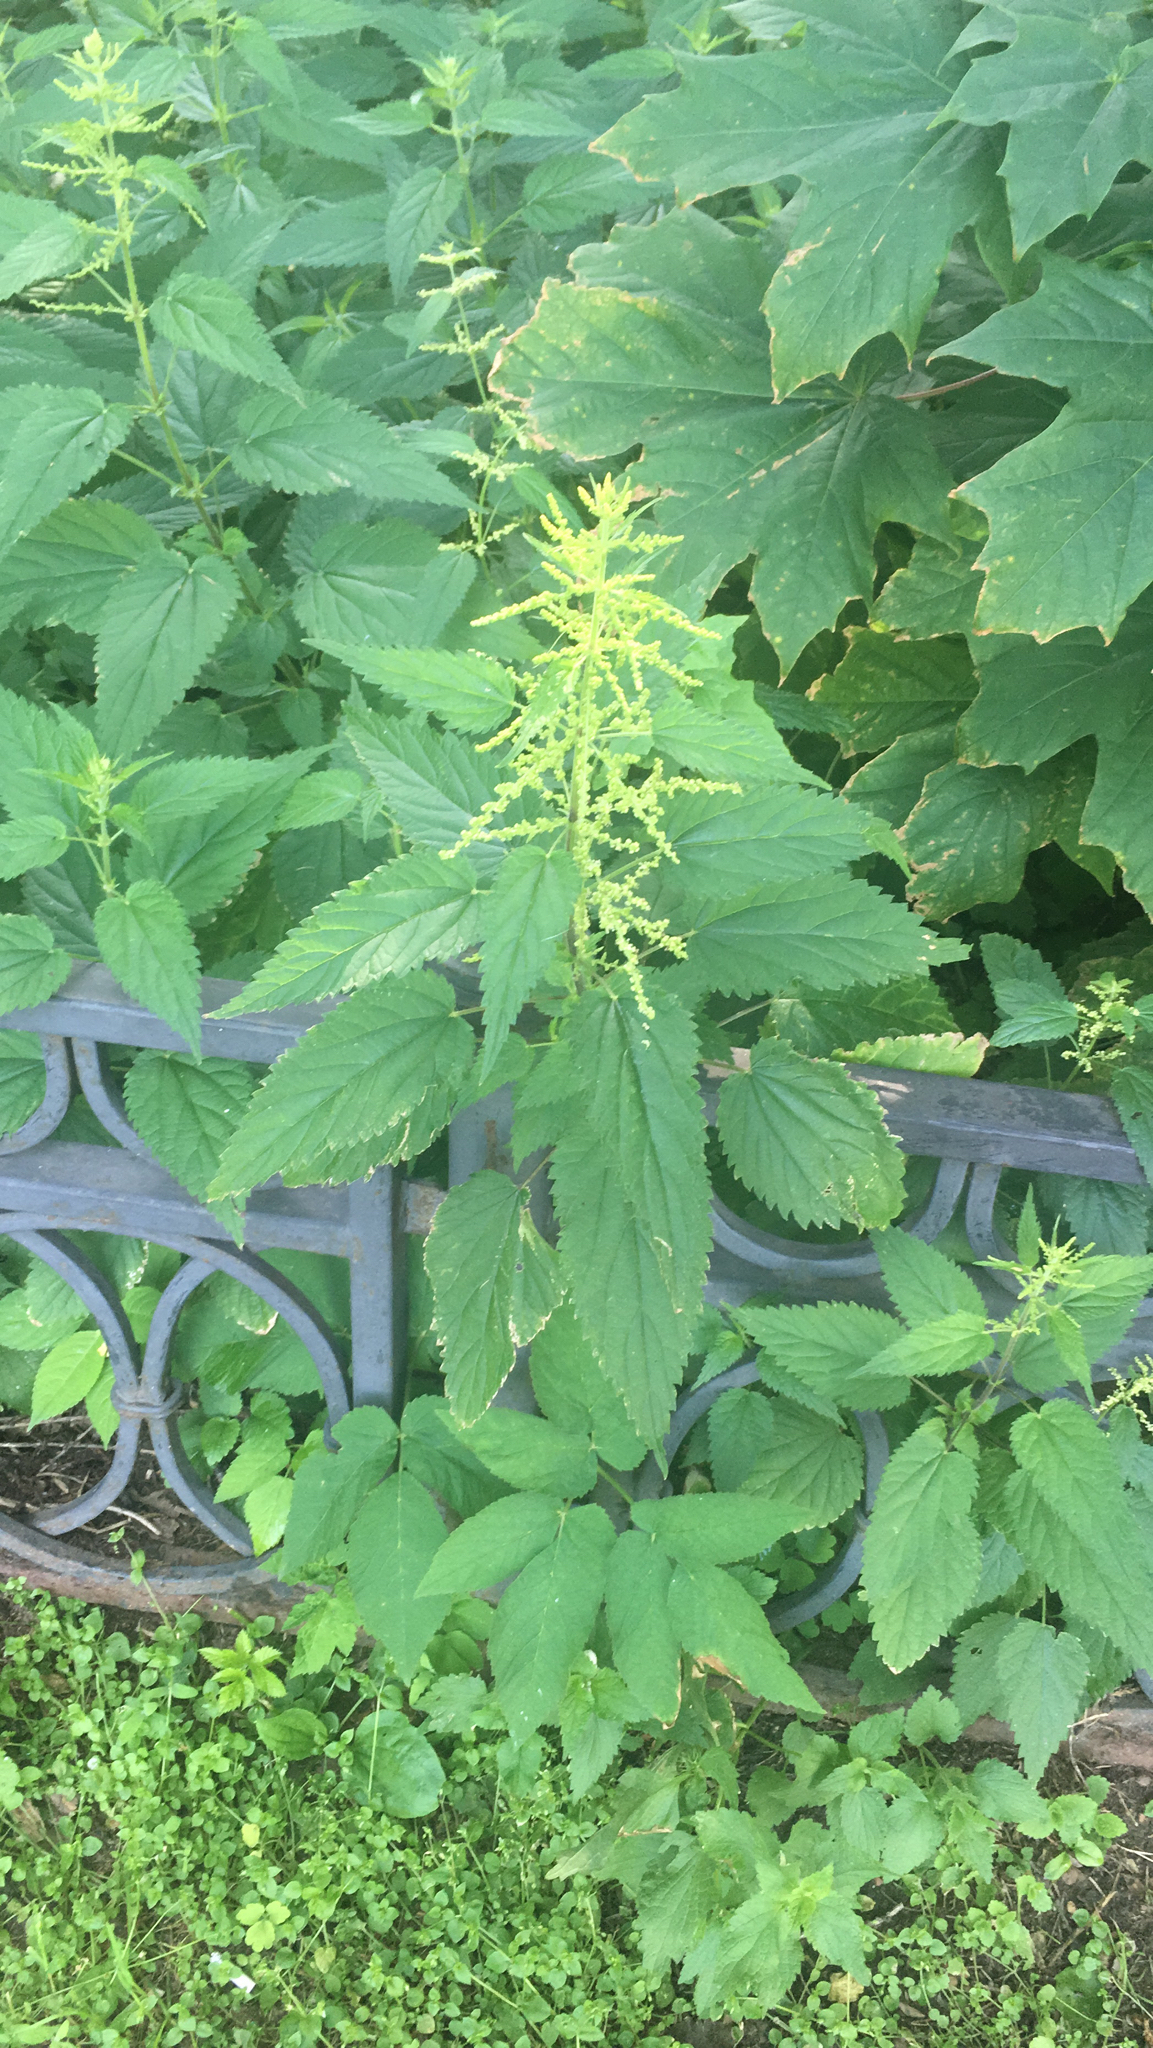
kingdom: Plantae
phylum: Tracheophyta
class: Magnoliopsida
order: Rosales
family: Urticaceae
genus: Urtica
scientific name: Urtica dioica
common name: Common nettle
